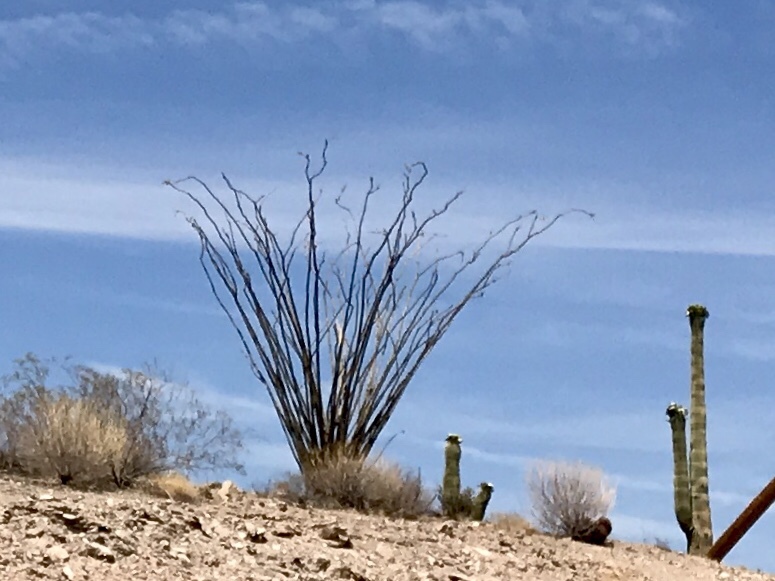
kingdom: Plantae
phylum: Tracheophyta
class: Magnoliopsida
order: Ericales
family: Fouquieriaceae
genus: Fouquieria
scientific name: Fouquieria splendens
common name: Vine-cactus
